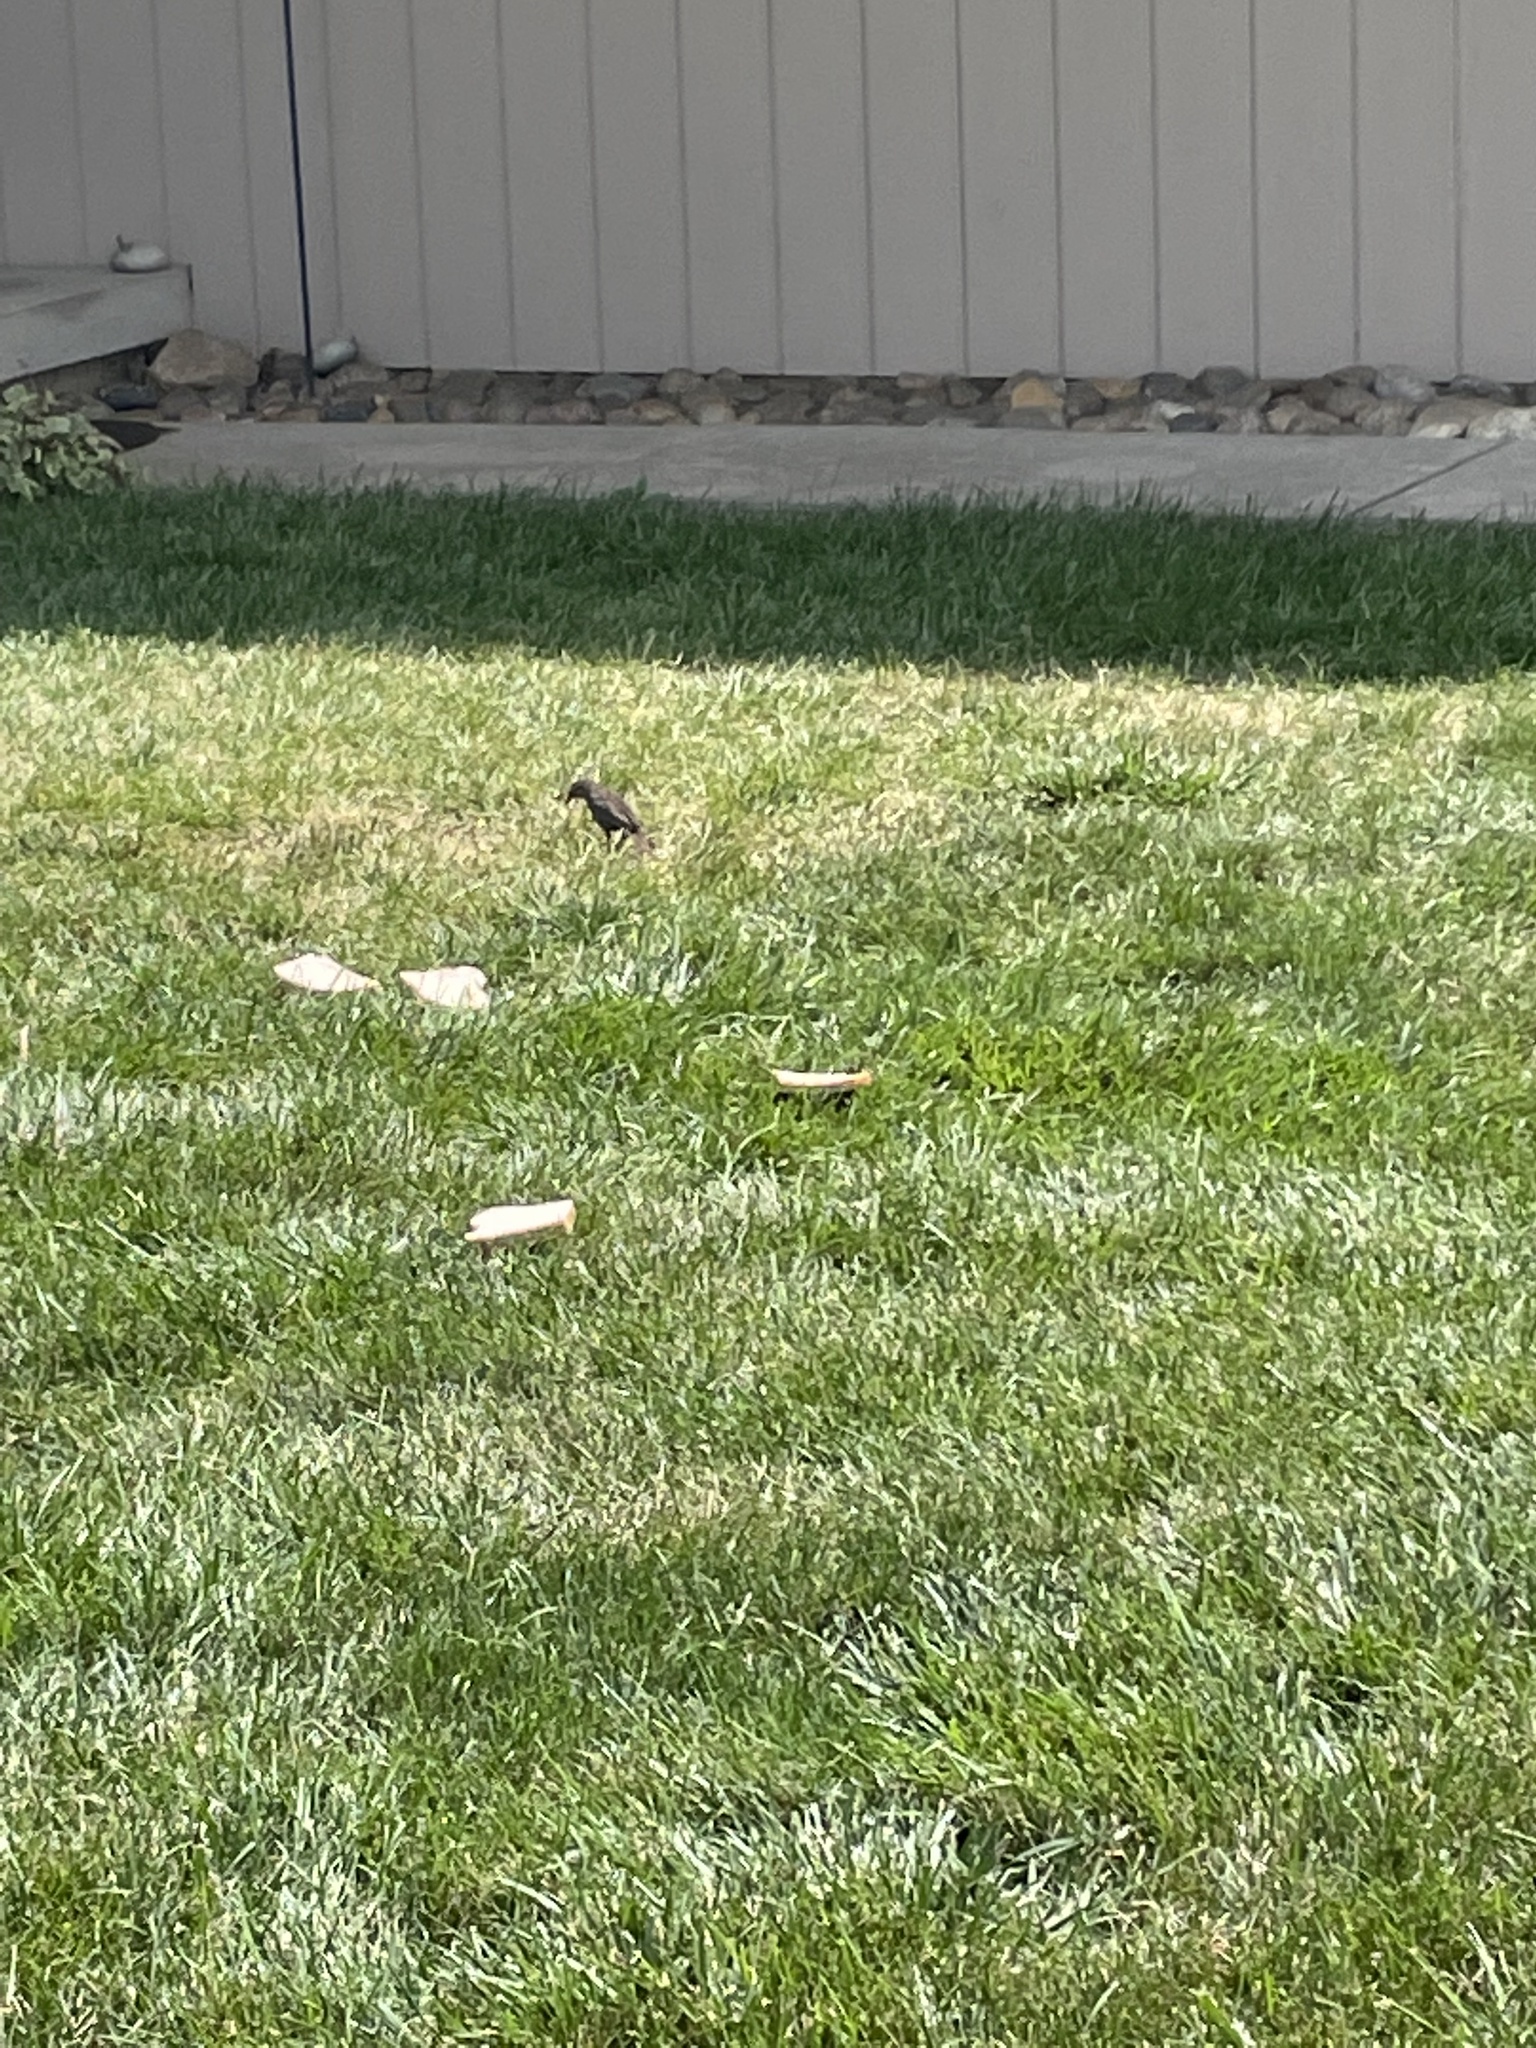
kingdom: Animalia
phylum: Chordata
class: Aves
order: Passeriformes
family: Icteridae
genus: Agelaius
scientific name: Agelaius phoeniceus
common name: Red-winged blackbird
